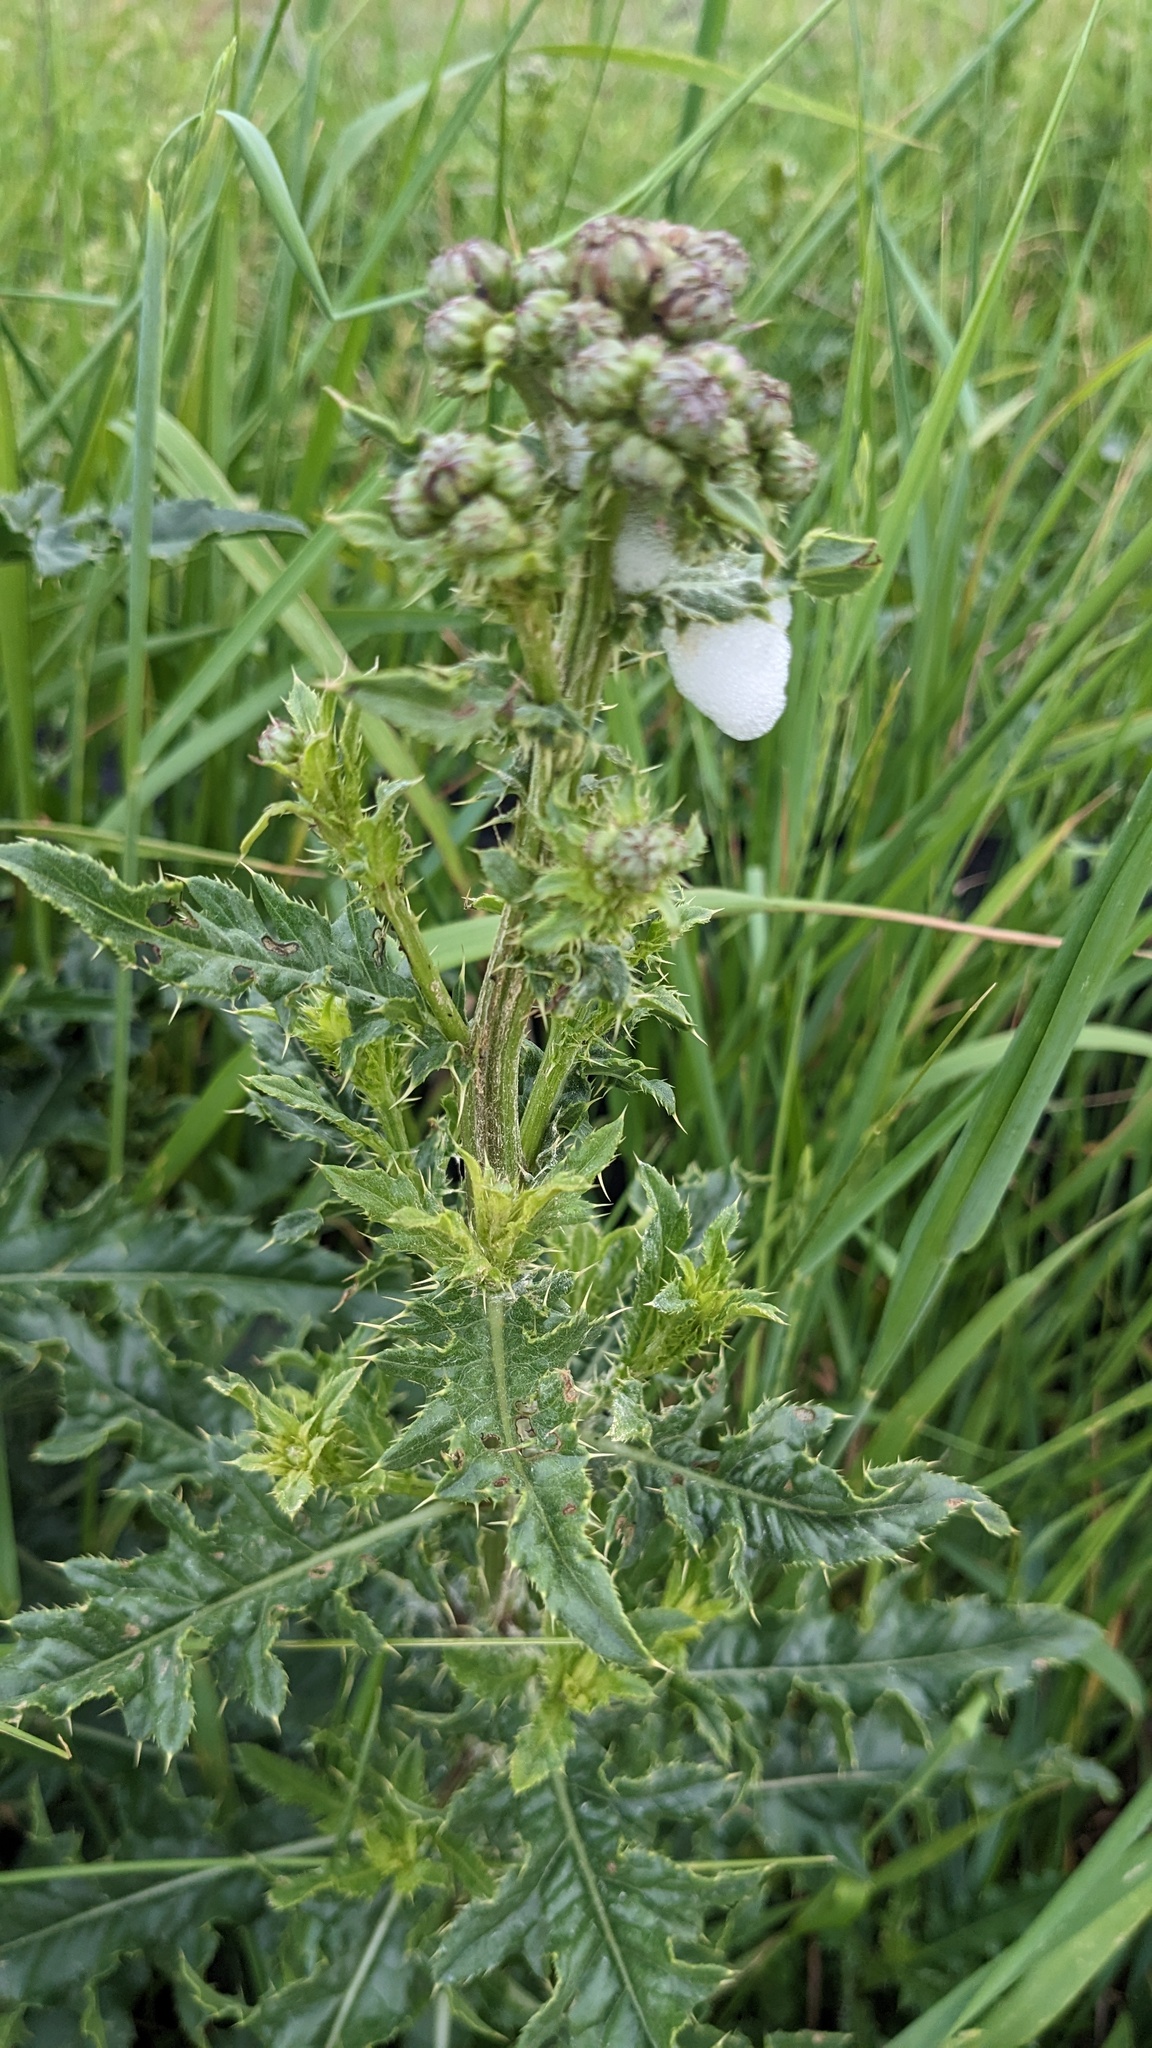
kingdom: Plantae
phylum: Tracheophyta
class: Magnoliopsida
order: Asterales
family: Asteraceae
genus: Cirsium
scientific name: Cirsium arvense
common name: Creeping thistle
